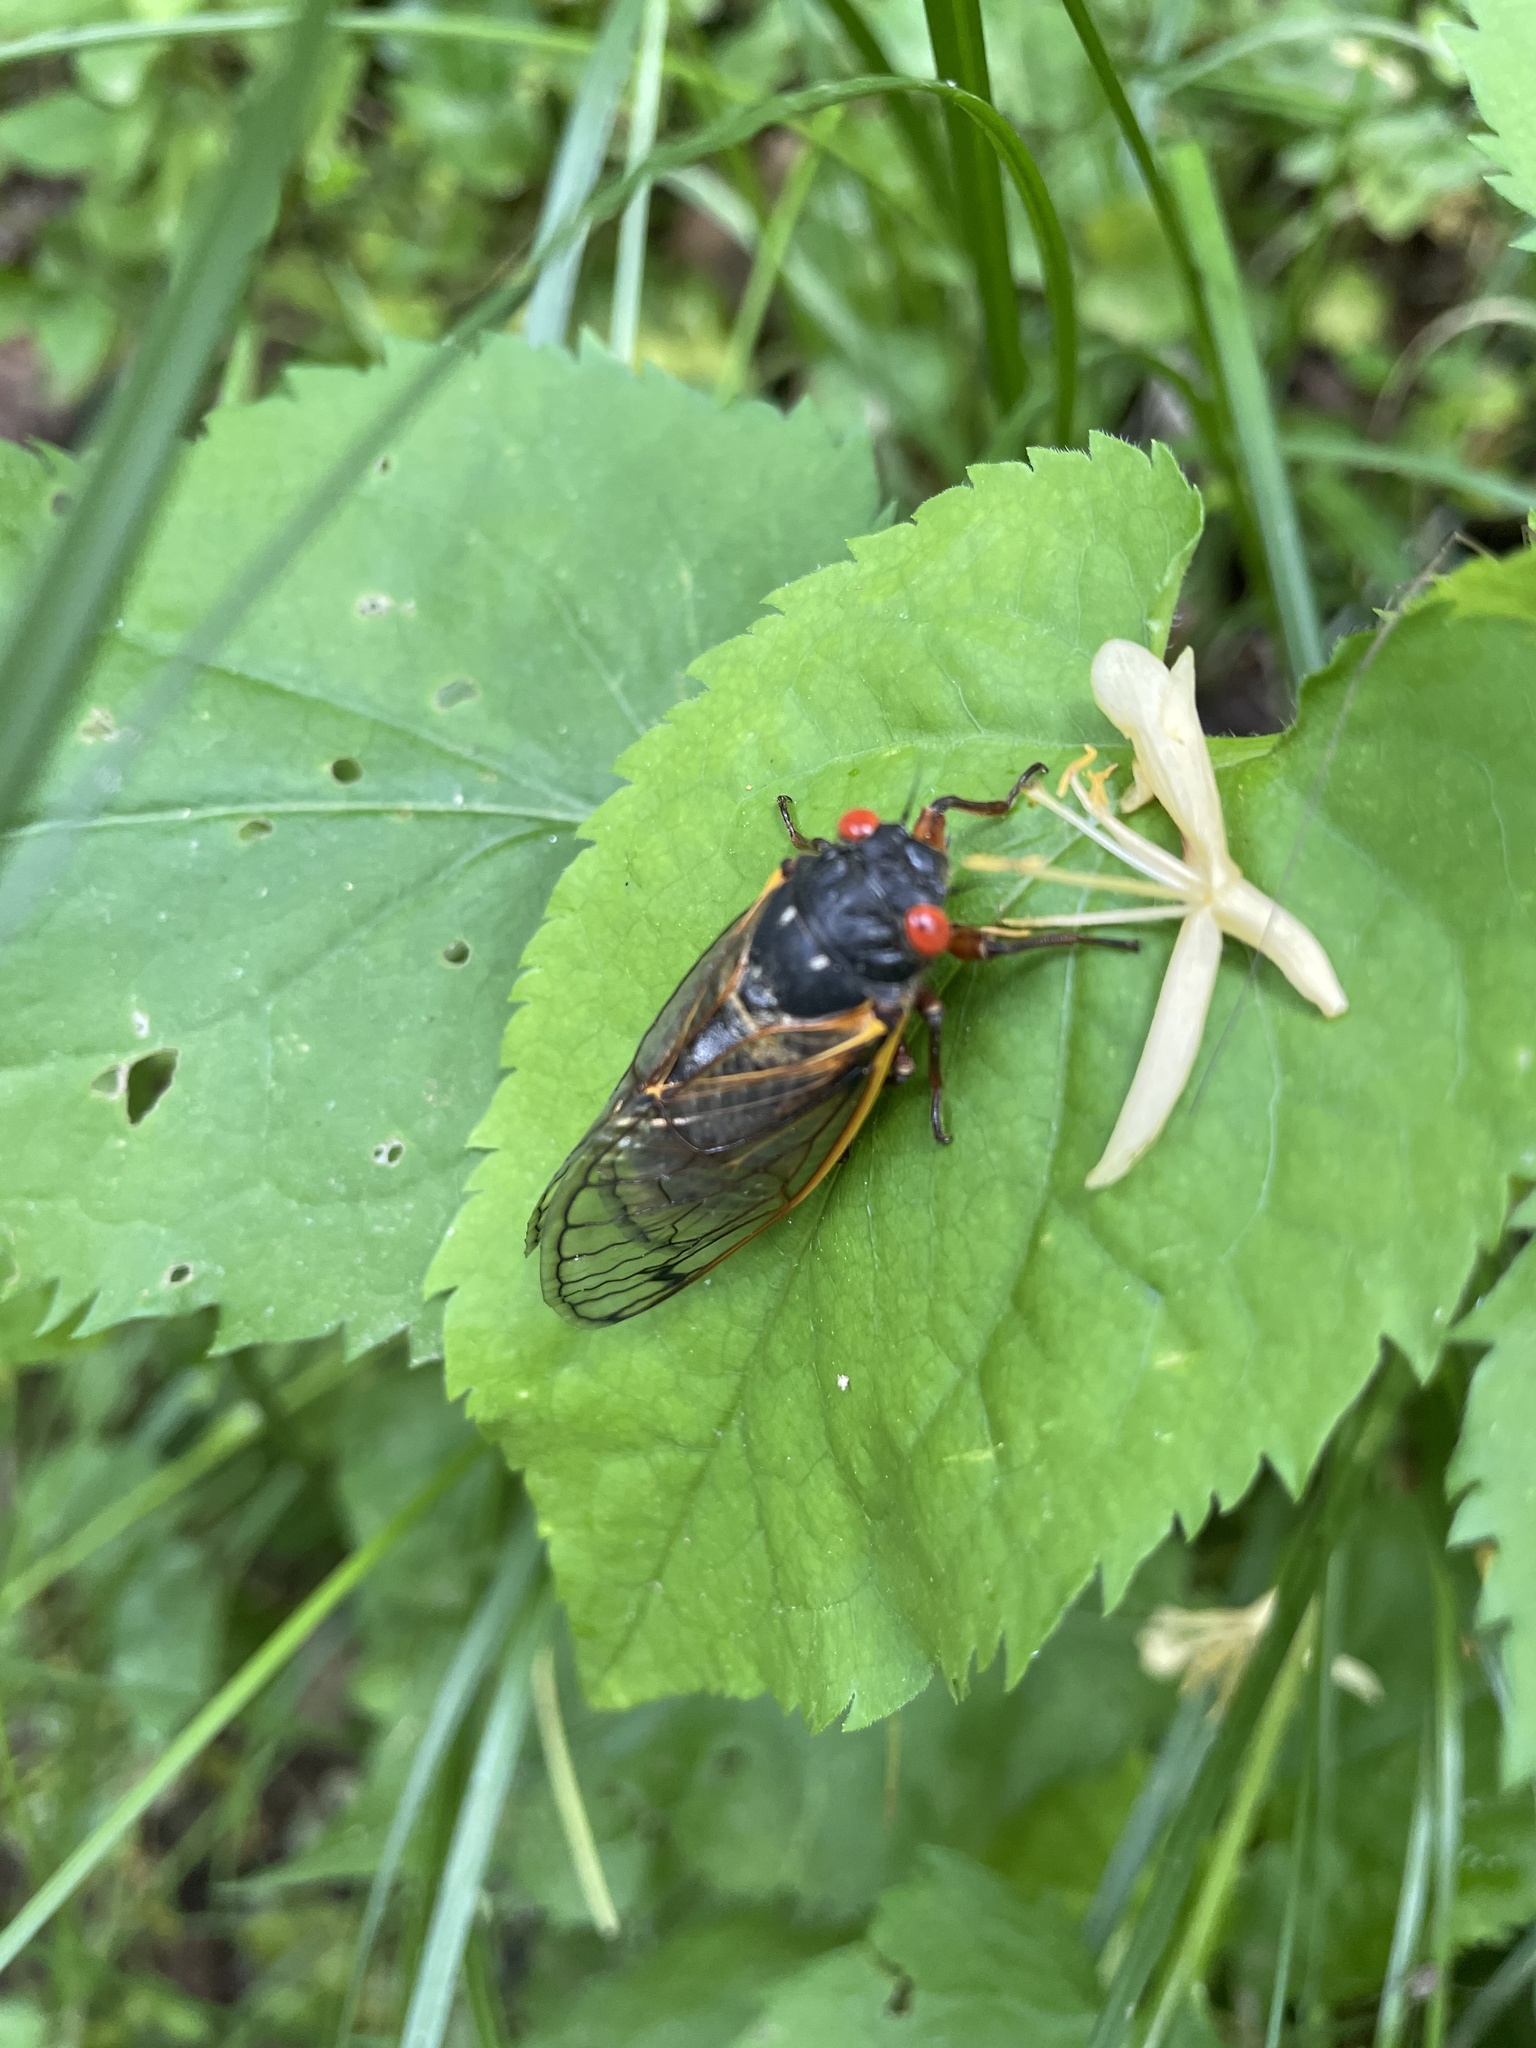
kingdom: Animalia
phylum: Arthropoda
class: Insecta
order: Hemiptera
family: Cicadidae
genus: Magicicada
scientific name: Magicicada
